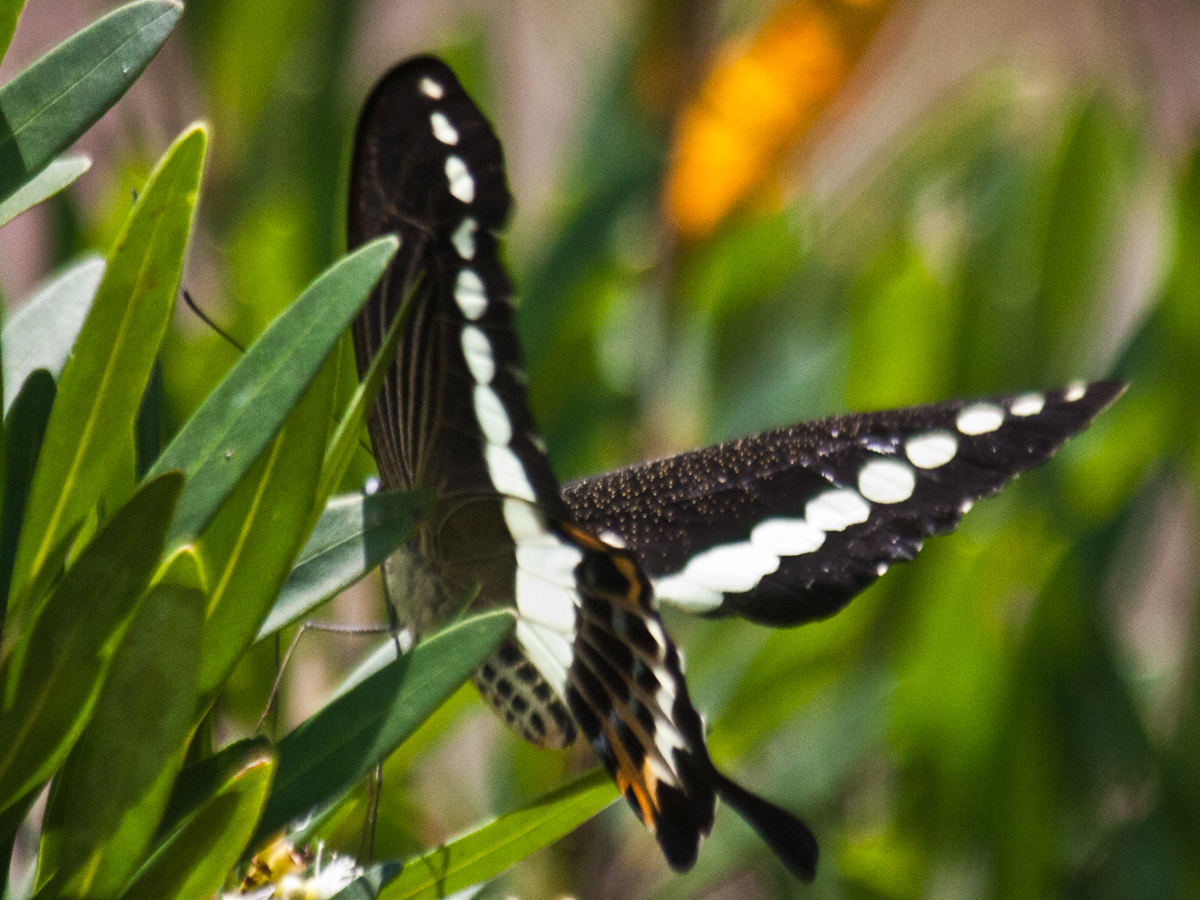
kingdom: Animalia
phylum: Arthropoda
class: Insecta
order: Lepidoptera
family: Papilionidae
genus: Papilio
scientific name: Papilio demolion
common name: Banded swallowtail
